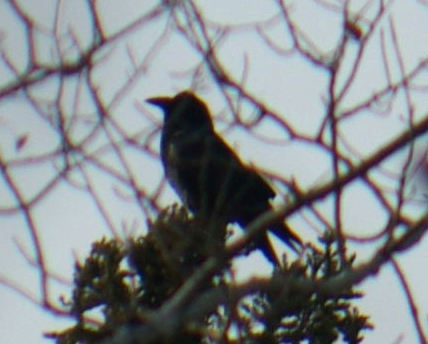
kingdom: Animalia
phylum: Chordata
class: Aves
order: Passeriformes
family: Corvidae
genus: Corvus
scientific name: Corvus corax
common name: Common raven
